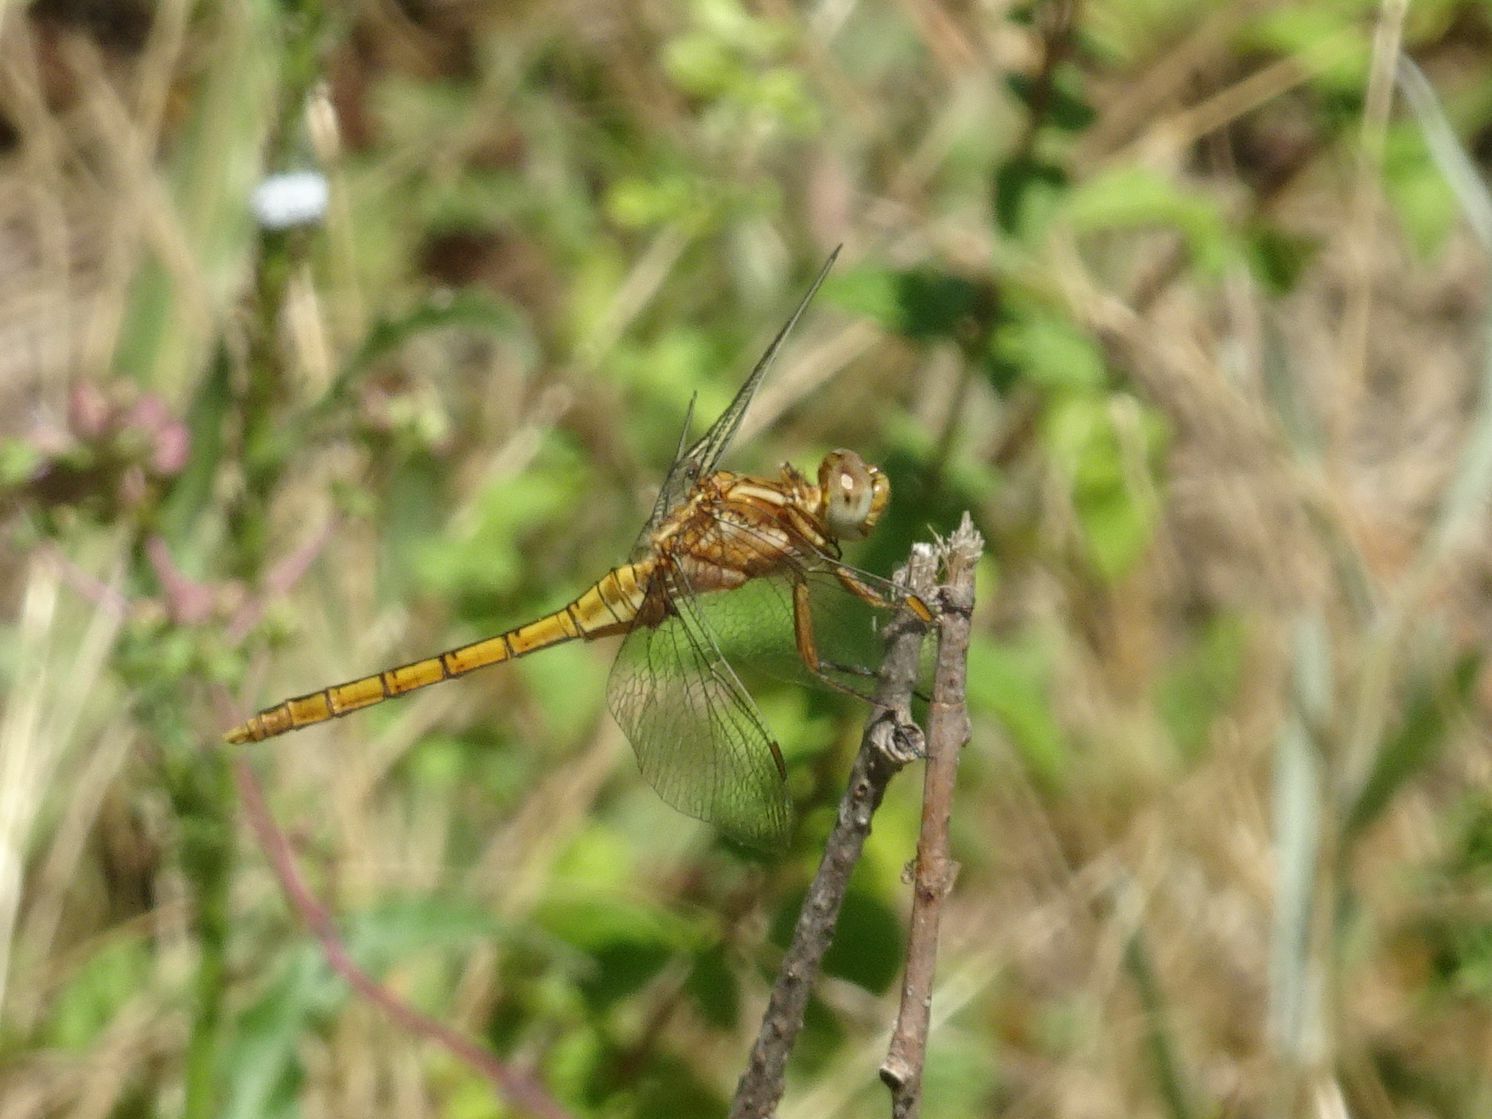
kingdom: Animalia
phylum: Arthropoda
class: Insecta
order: Odonata
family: Libellulidae
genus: Orthetrum
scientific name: Orthetrum coerulescens
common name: Keeled skimmer
